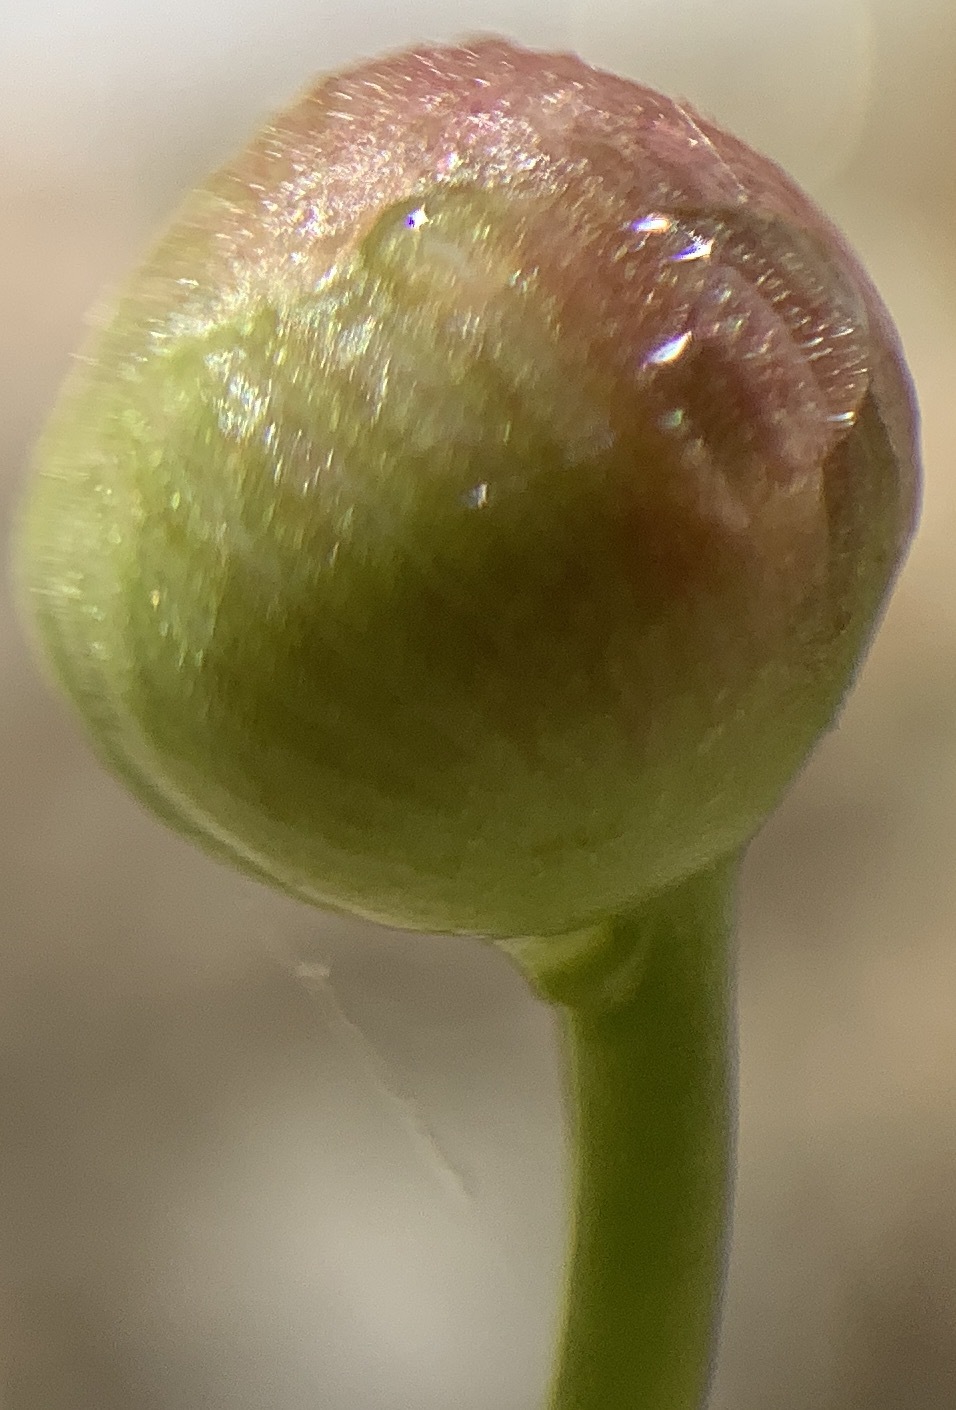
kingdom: Plantae
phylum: Tracheophyta
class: Liliopsida
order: Alismatales
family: Alismataceae
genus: Sagittaria
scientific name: Sagittaria lancifolia
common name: Lance-leaf arrowhead
